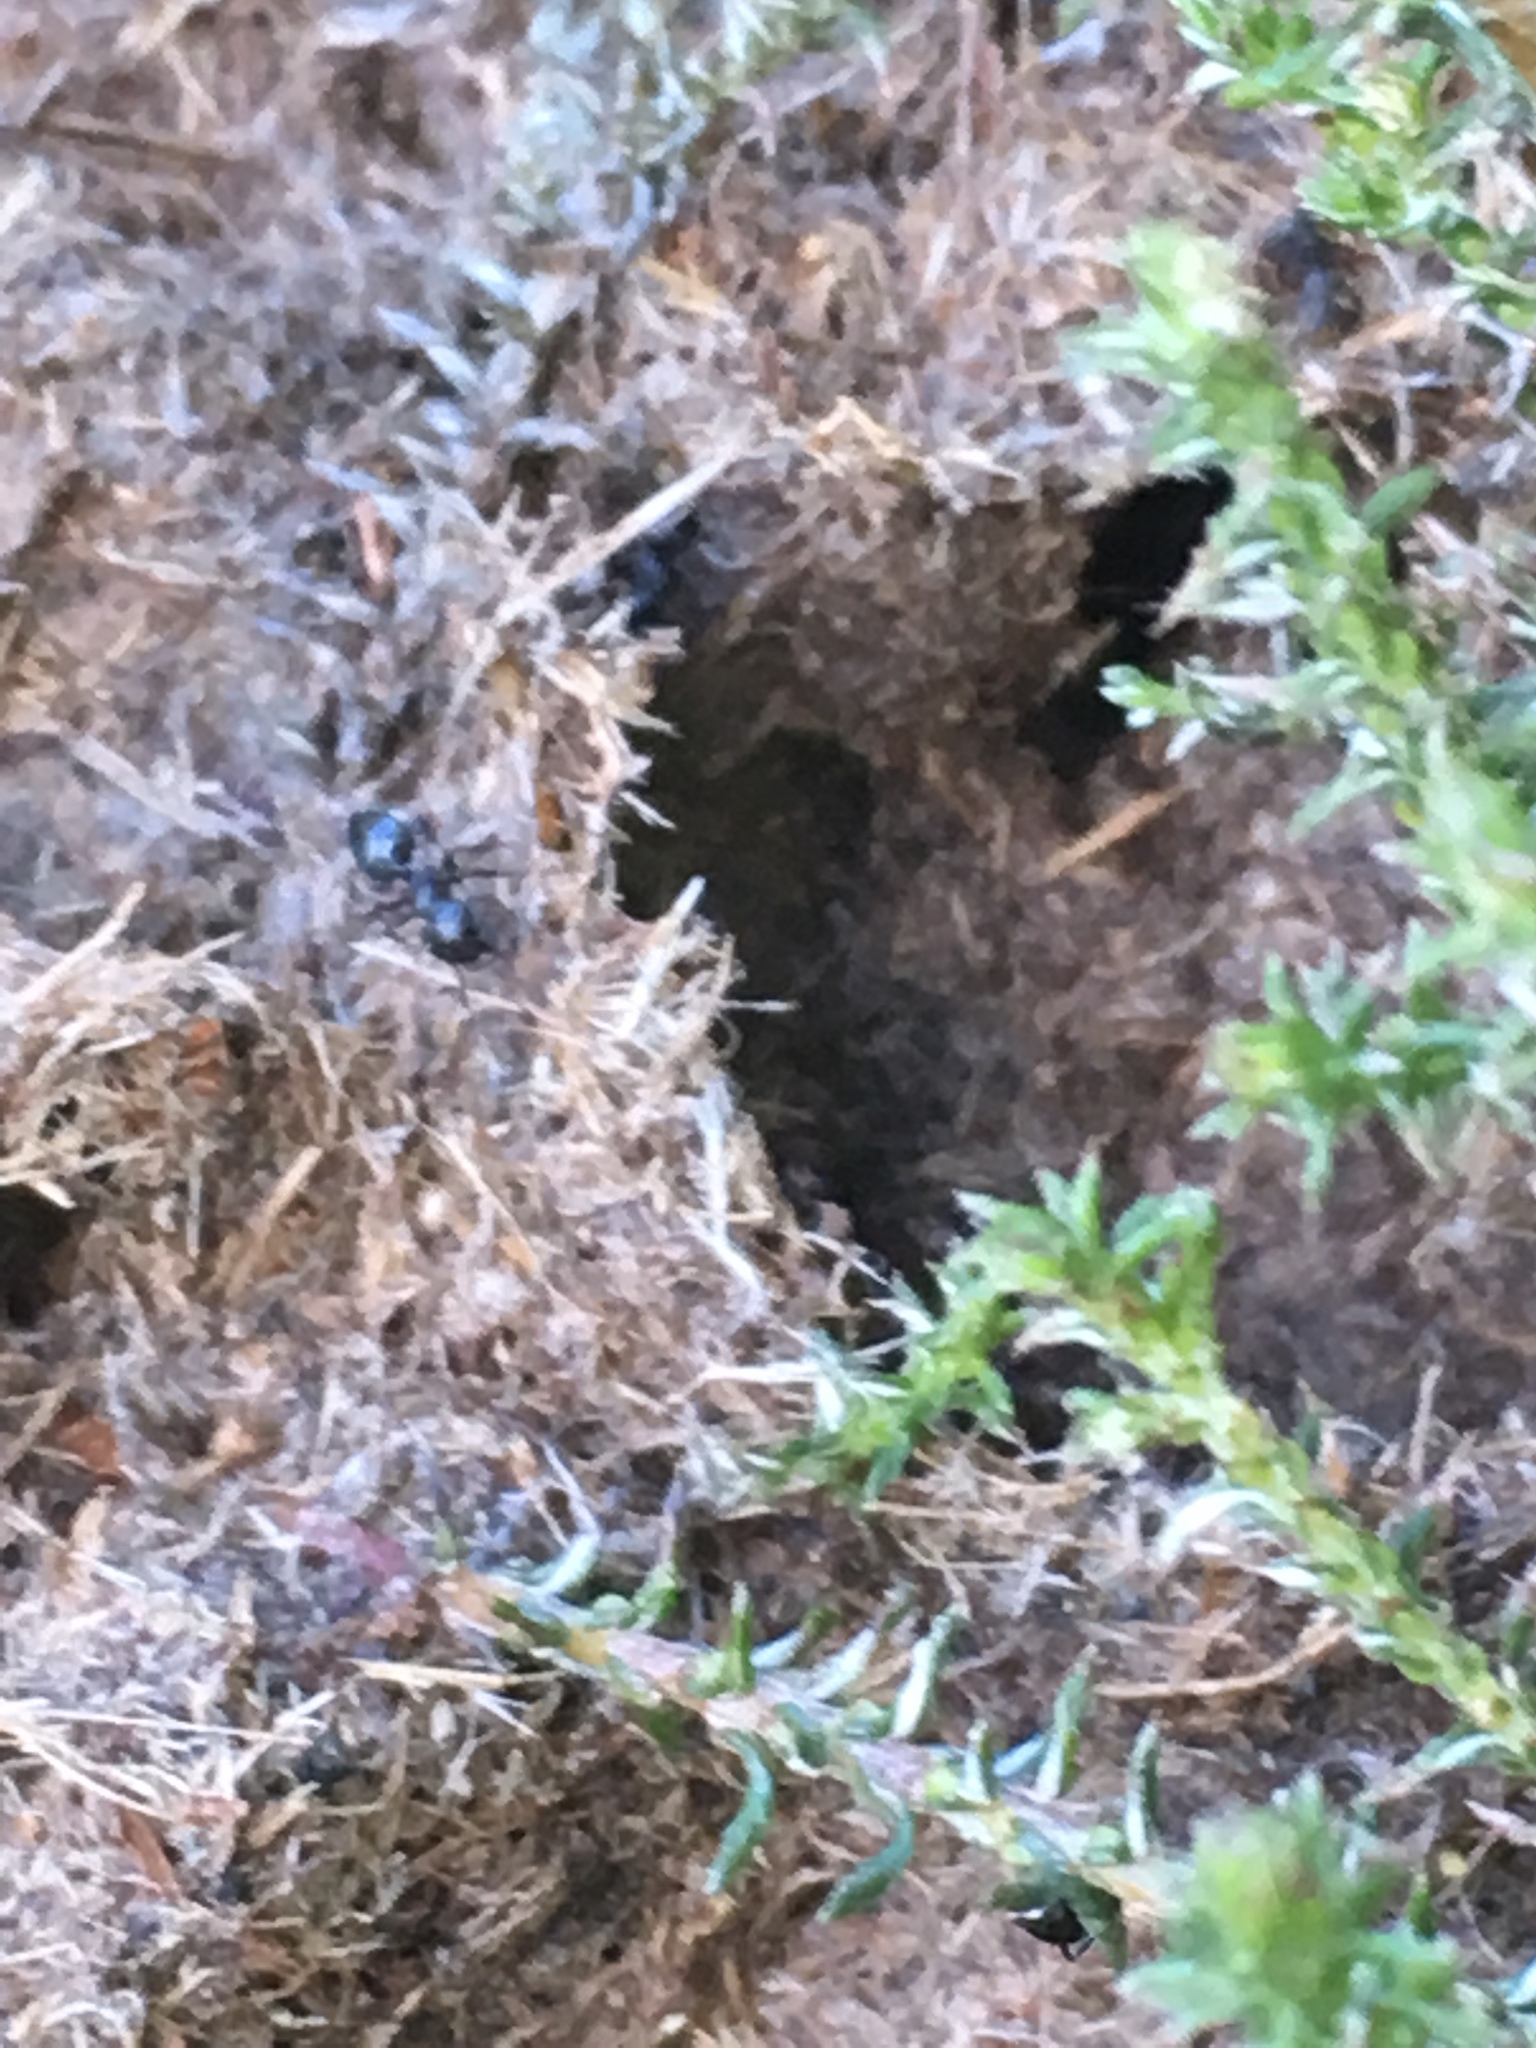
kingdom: Animalia
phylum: Arthropoda
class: Insecta
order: Hymenoptera
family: Formicidae
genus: Crematogaster
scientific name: Crematogaster peringueyi
